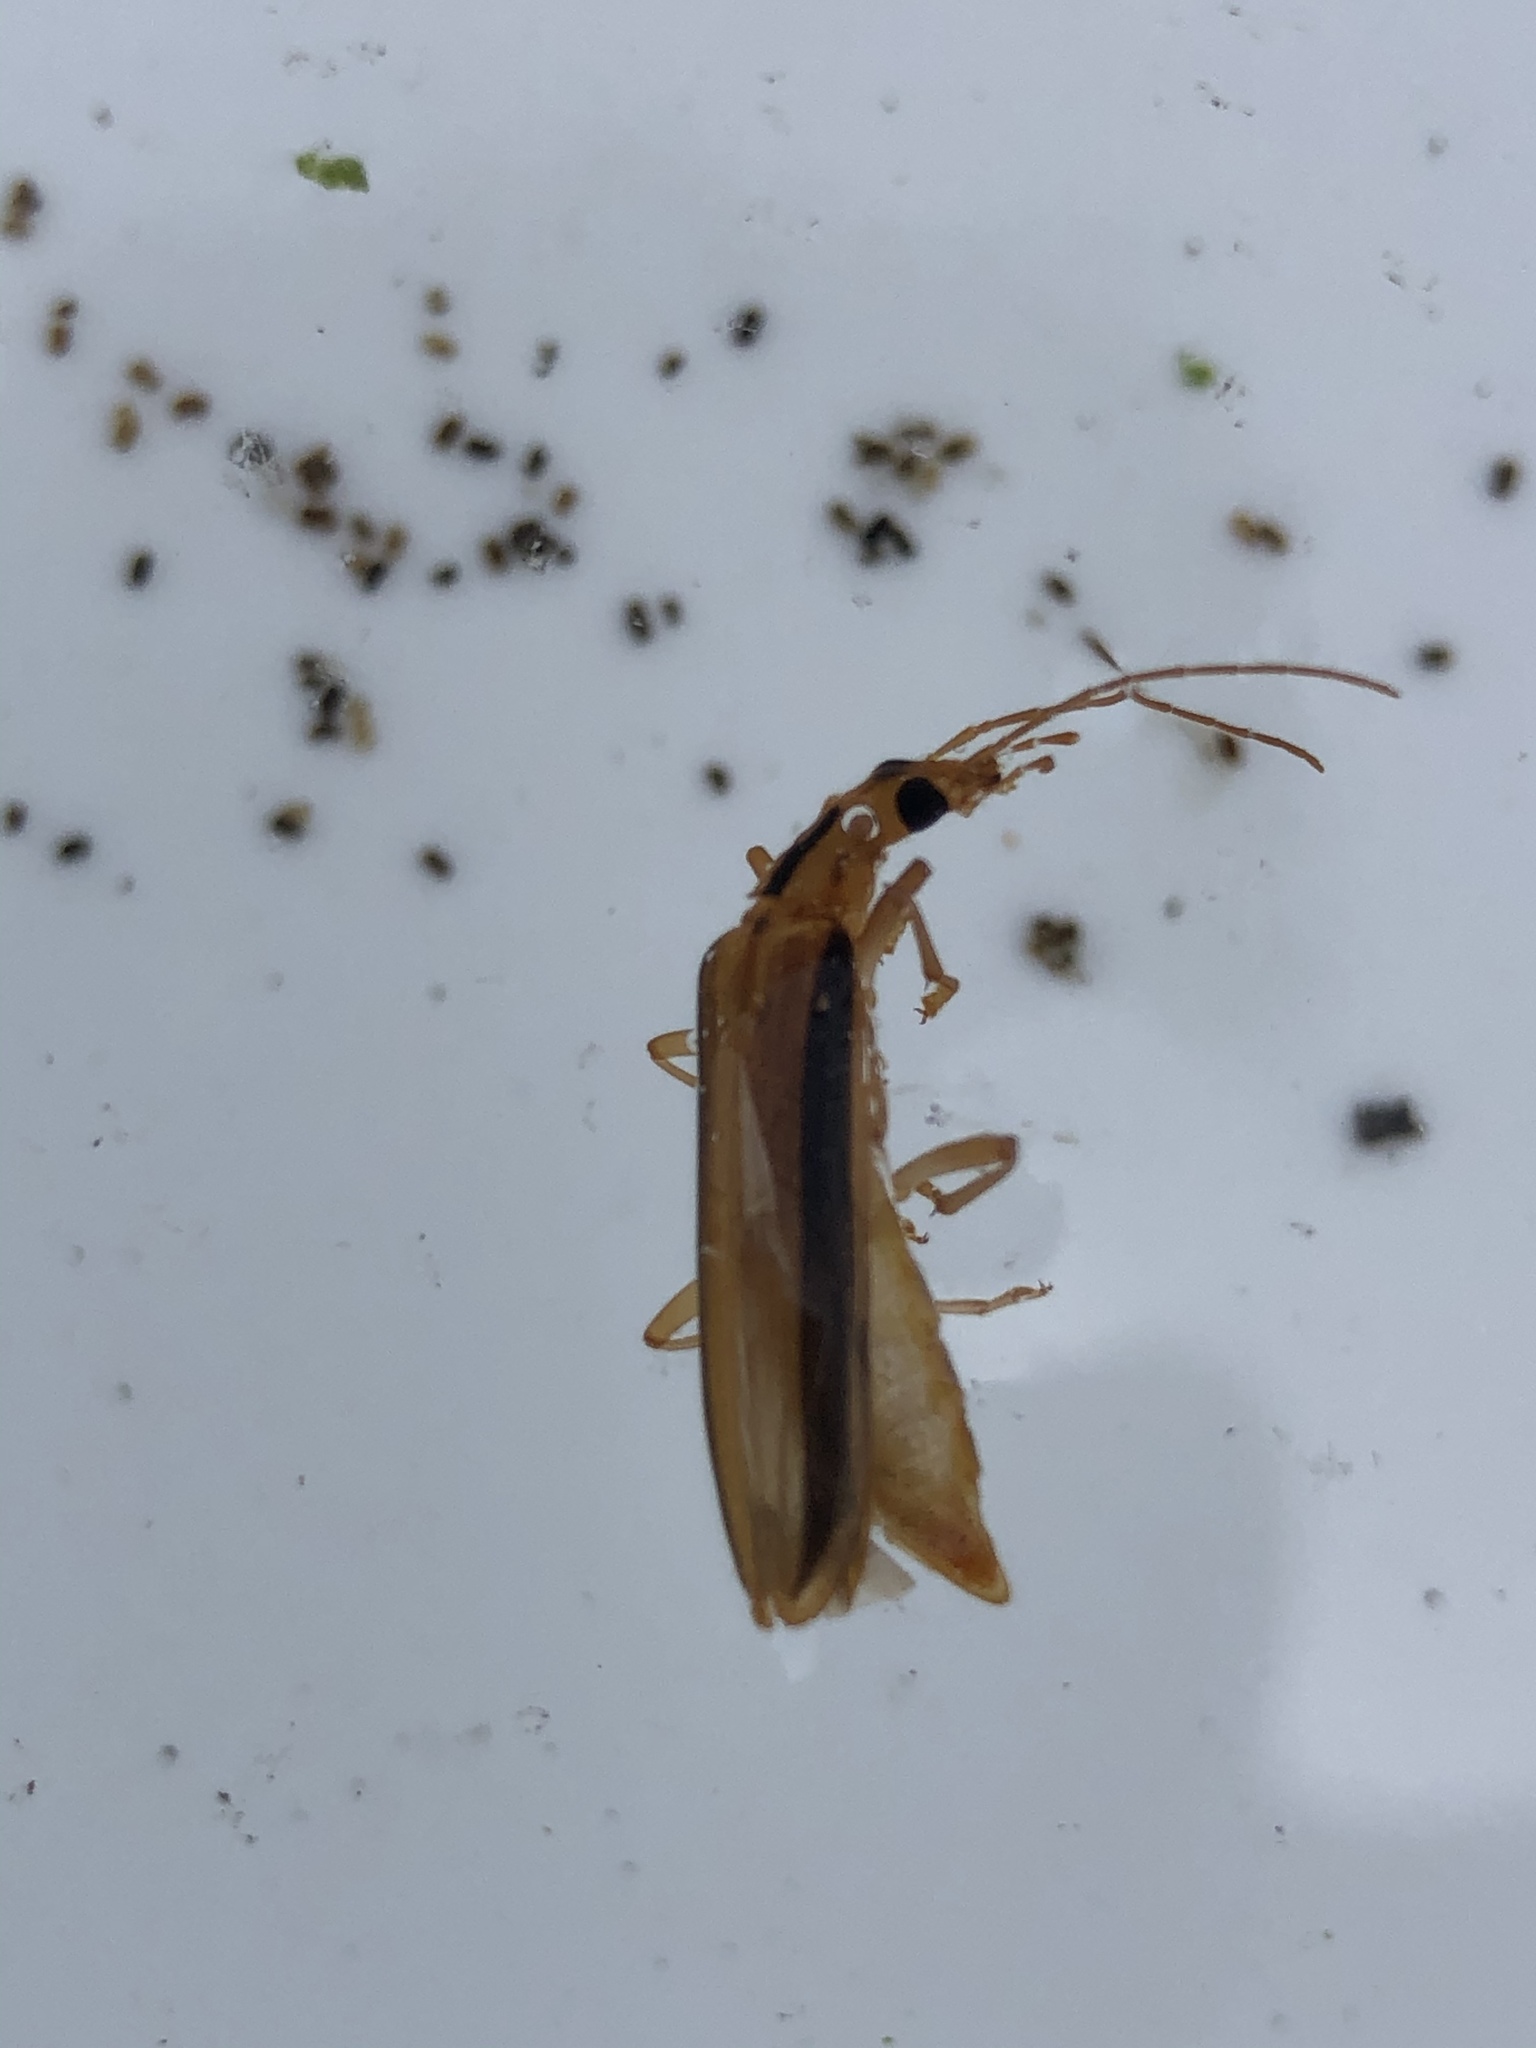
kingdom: Animalia
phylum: Arthropoda
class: Insecta
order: Coleoptera
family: Oedemeridae
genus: Thelyphassa
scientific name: Thelyphassa
